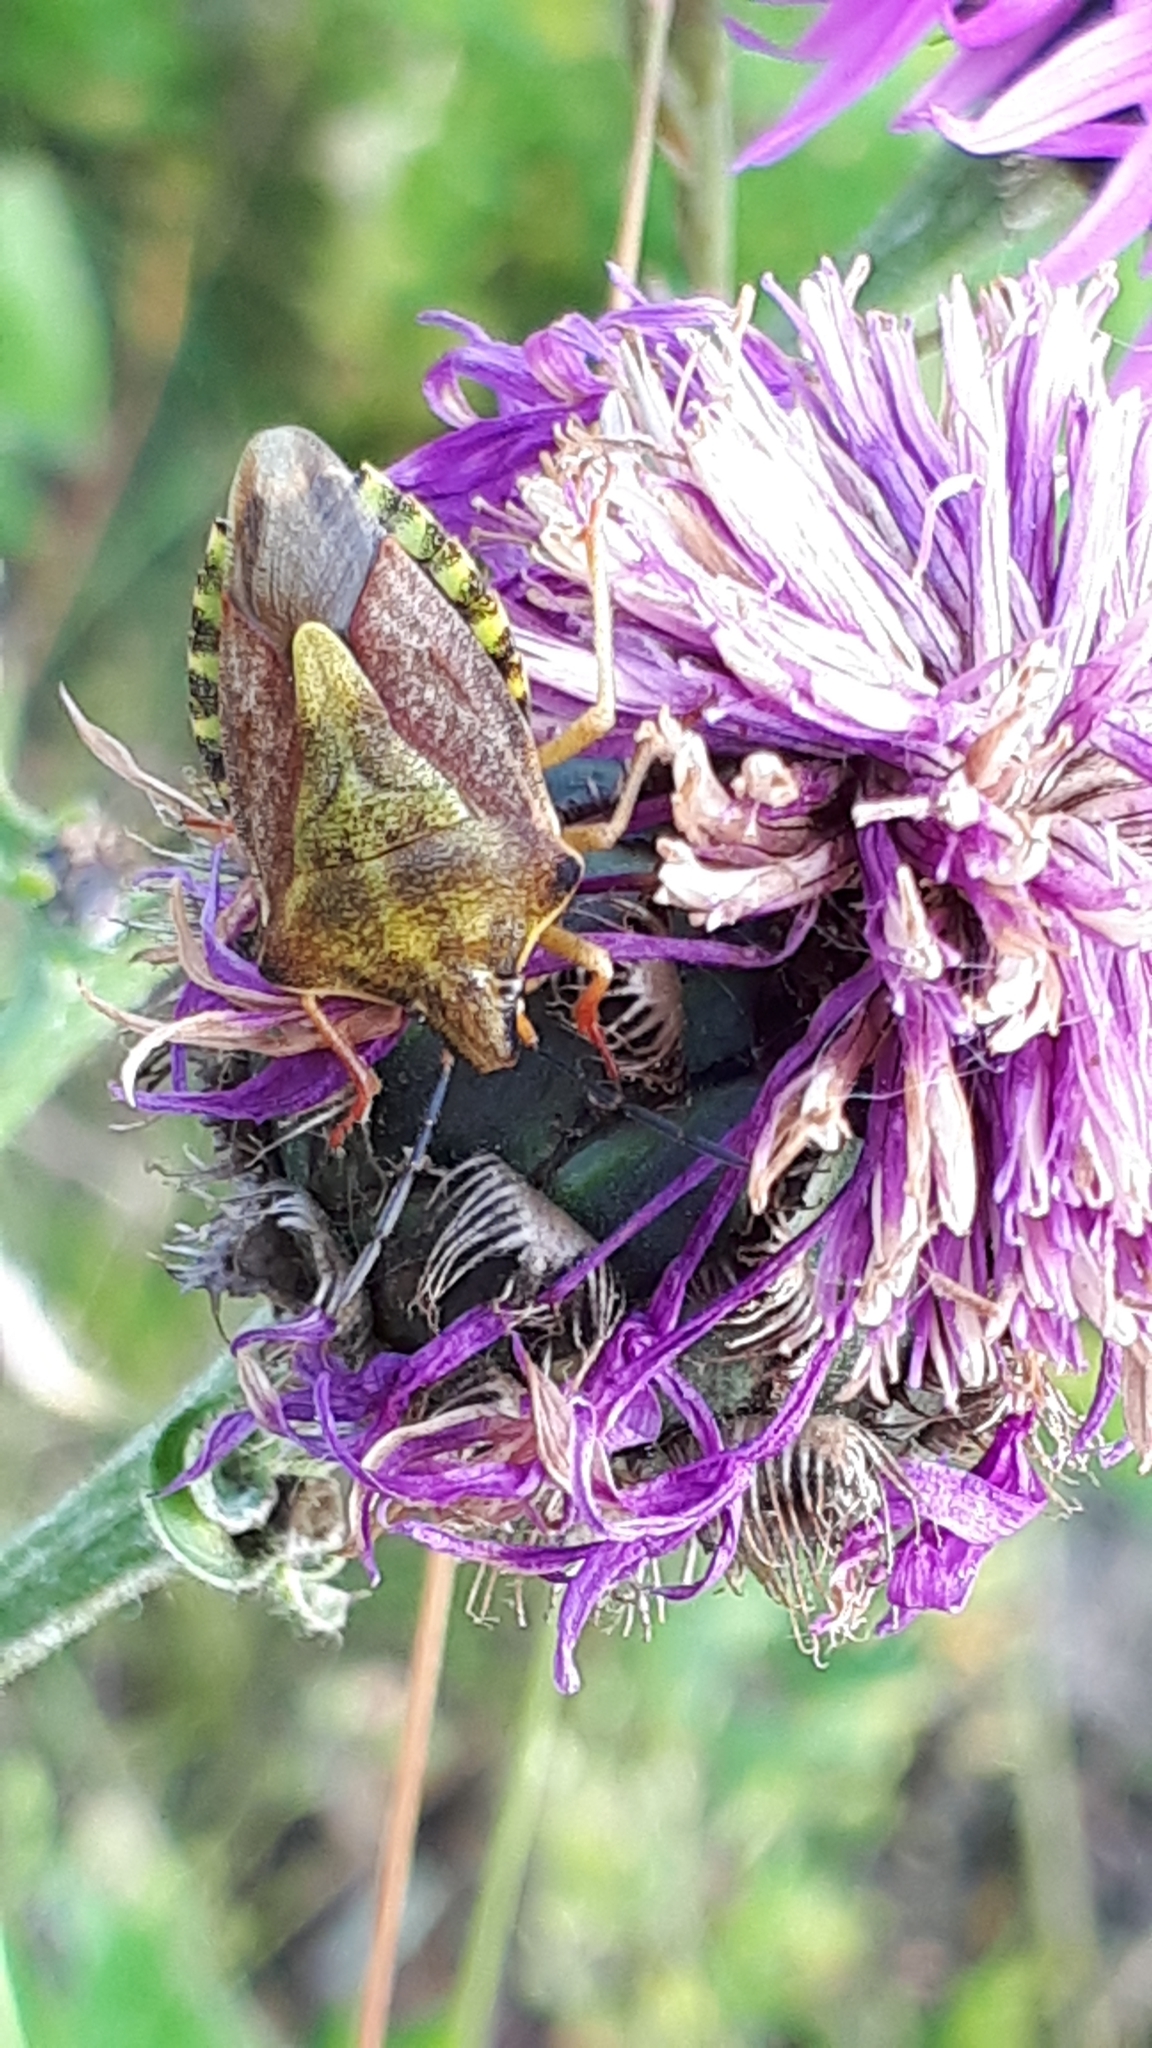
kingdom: Animalia
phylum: Arthropoda
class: Insecta
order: Hemiptera
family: Pentatomidae
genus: Carpocoris
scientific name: Carpocoris purpureipennis
